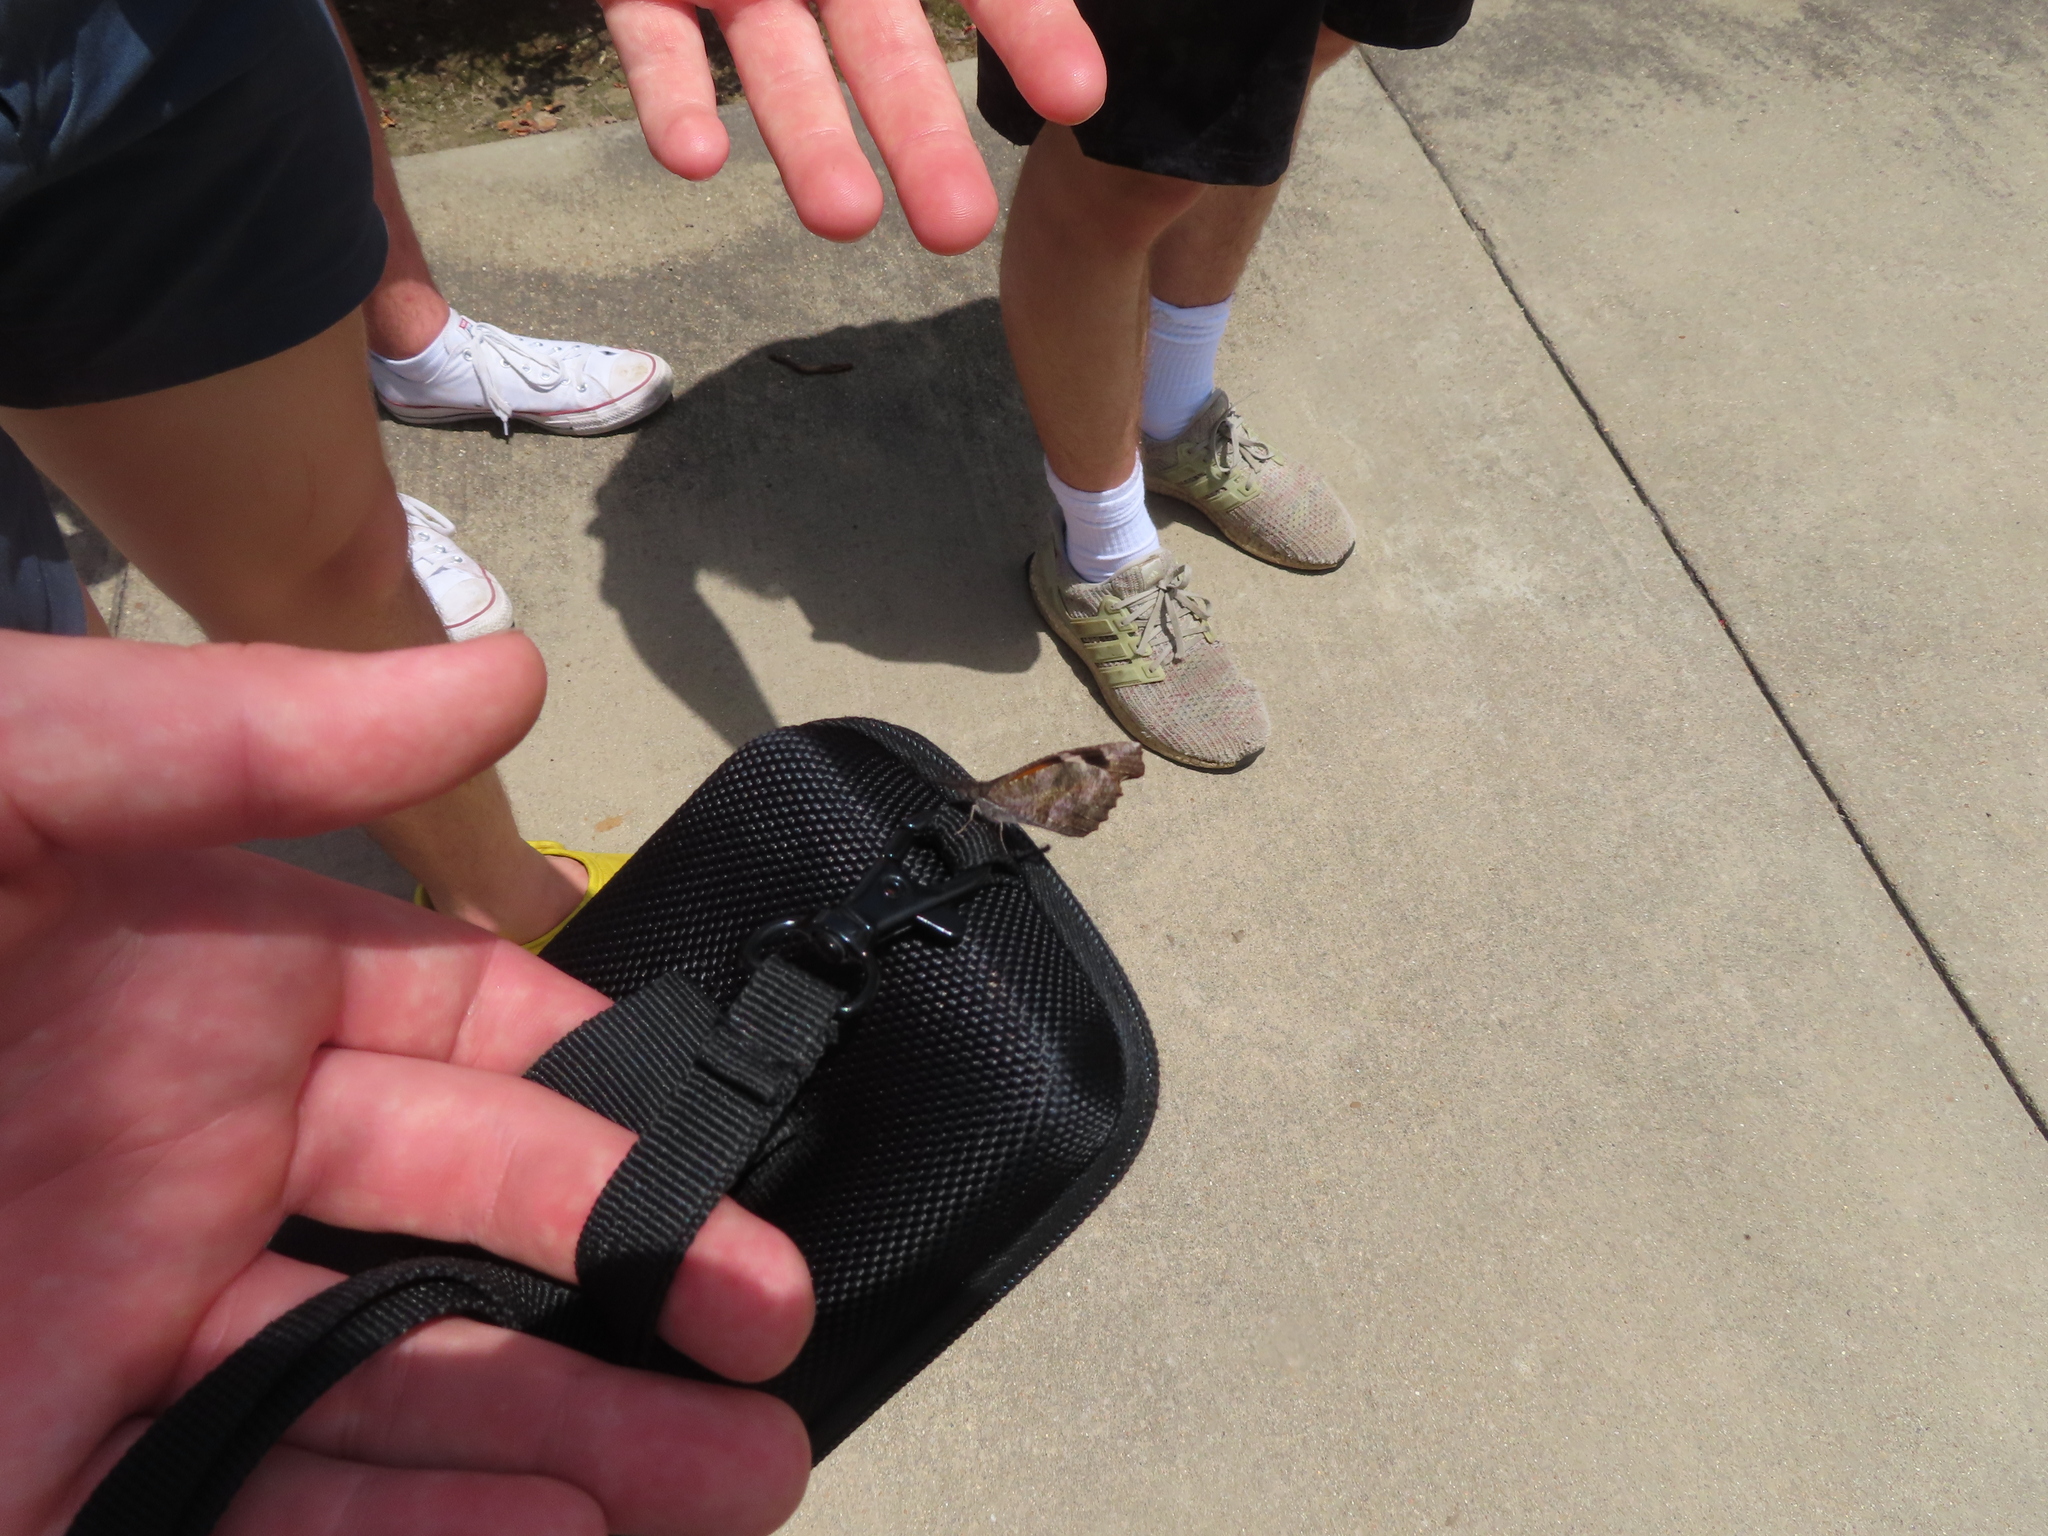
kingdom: Animalia
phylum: Arthropoda
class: Insecta
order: Lepidoptera
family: Nymphalidae
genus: Libytheana
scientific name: Libytheana carinenta
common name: American snout
